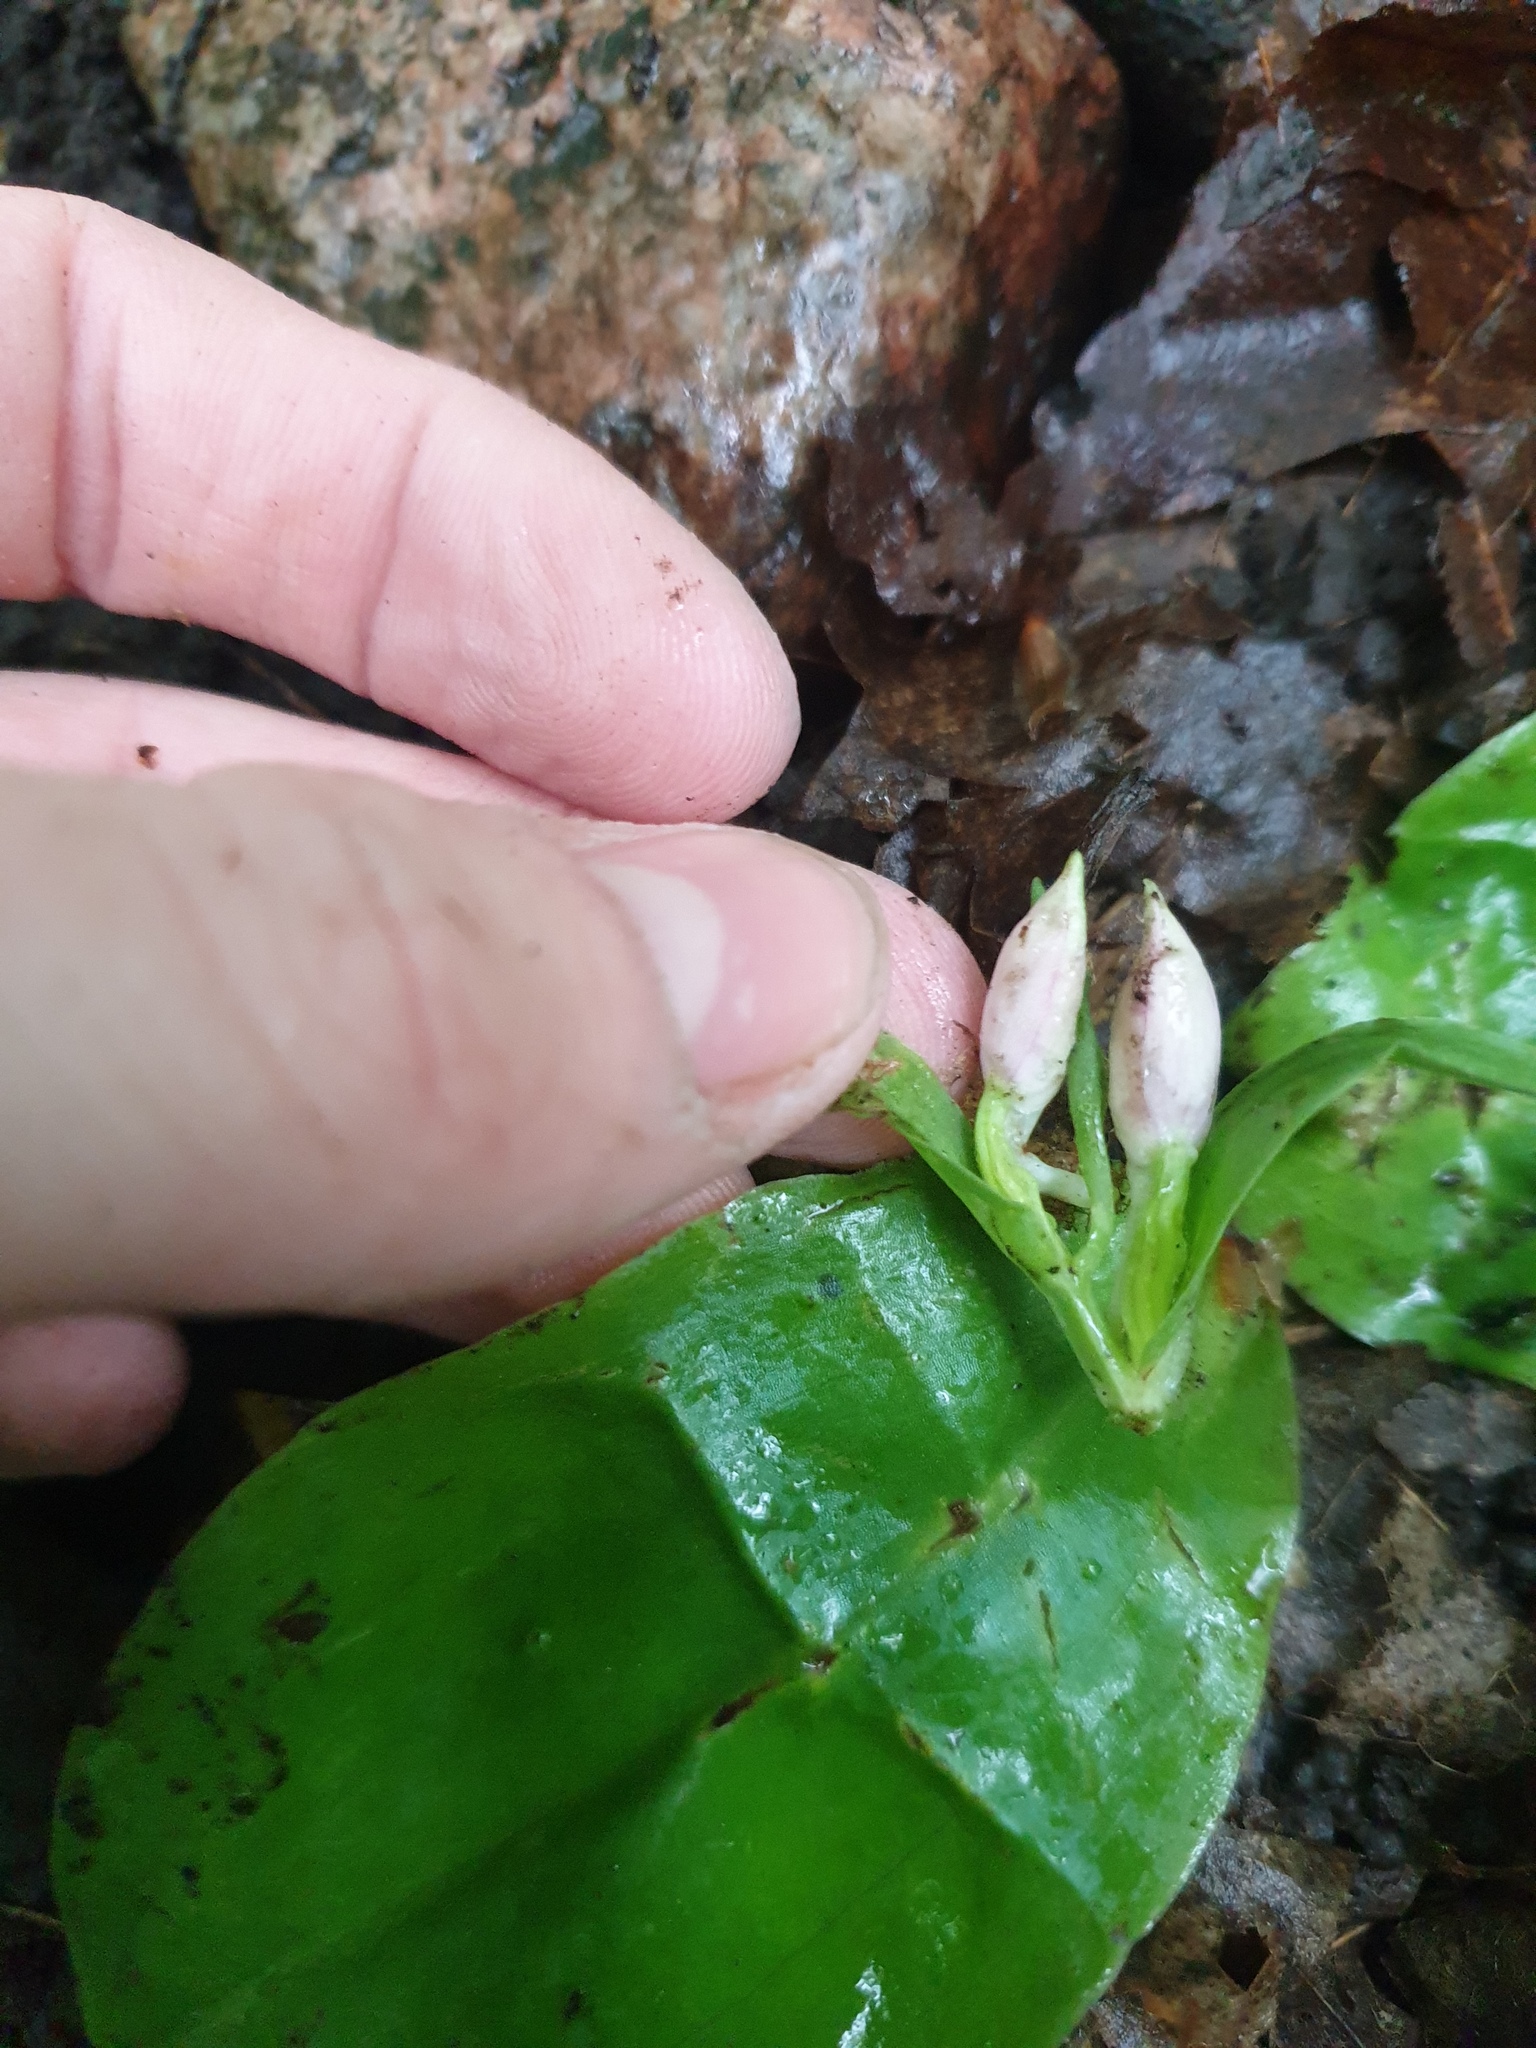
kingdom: Plantae
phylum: Tracheophyta
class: Liliopsida
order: Asparagales
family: Orchidaceae
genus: Galearis
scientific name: Galearis spectabilis
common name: Purple-hooded orchis
